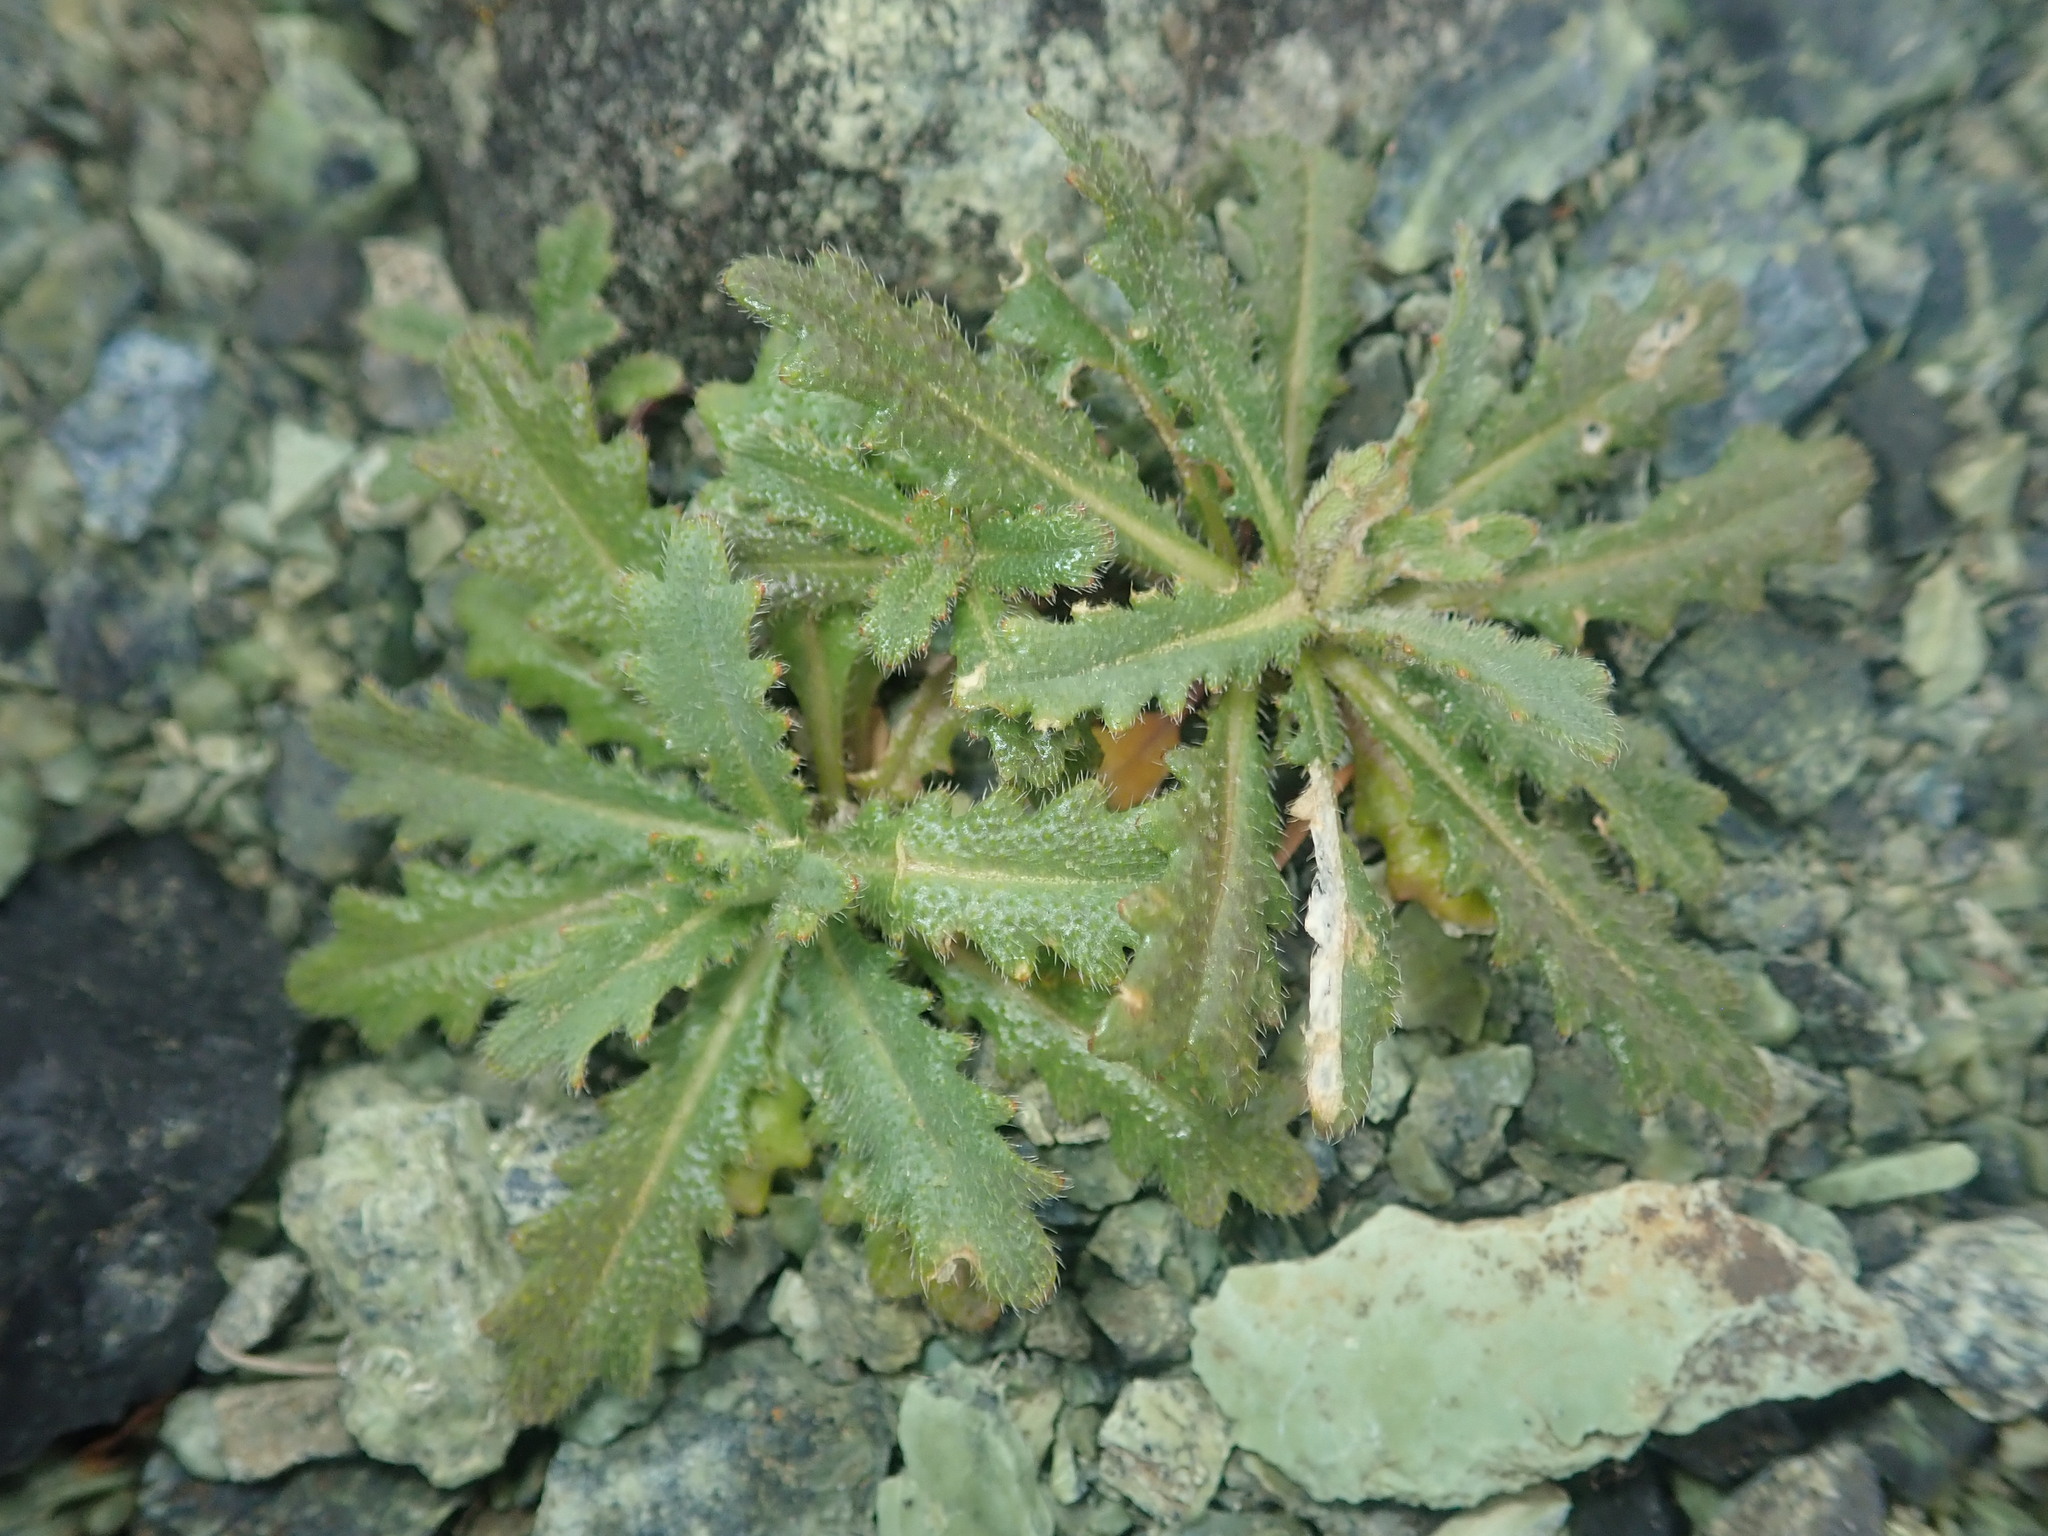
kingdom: Plantae
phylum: Tracheophyta
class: Magnoliopsida
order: Brassicales
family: Brassicaceae
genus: Streptanthus
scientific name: Streptanthus glandulosus
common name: Jewel-flower
